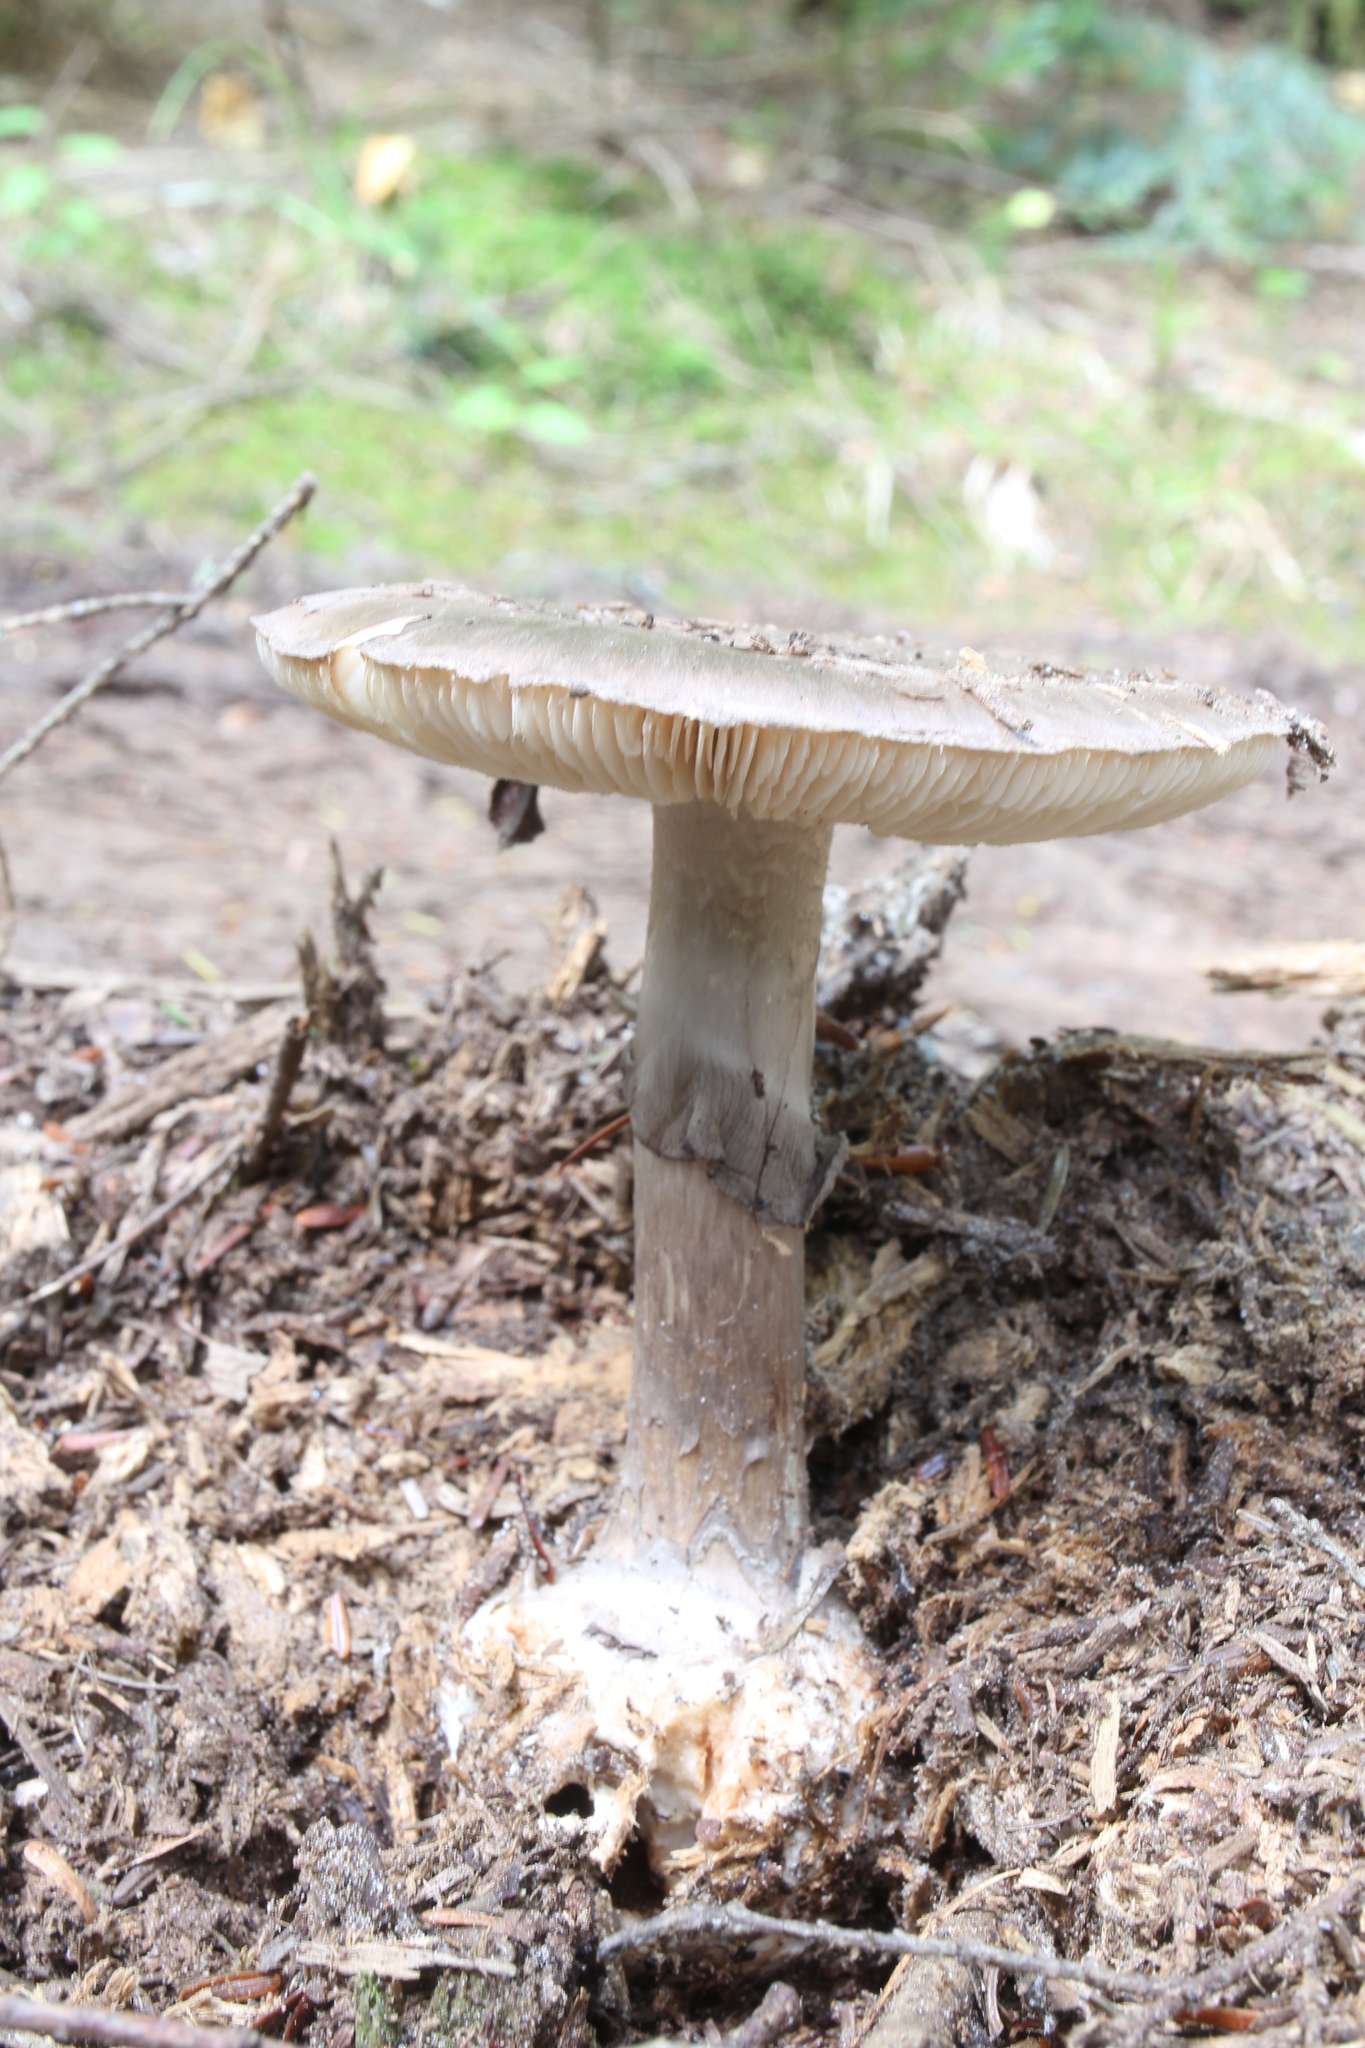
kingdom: Fungi
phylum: Basidiomycota
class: Agaricomycetes
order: Agaricales
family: Amanitaceae
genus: Amanita
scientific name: Amanita porphyria
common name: Grey veiled amanita
